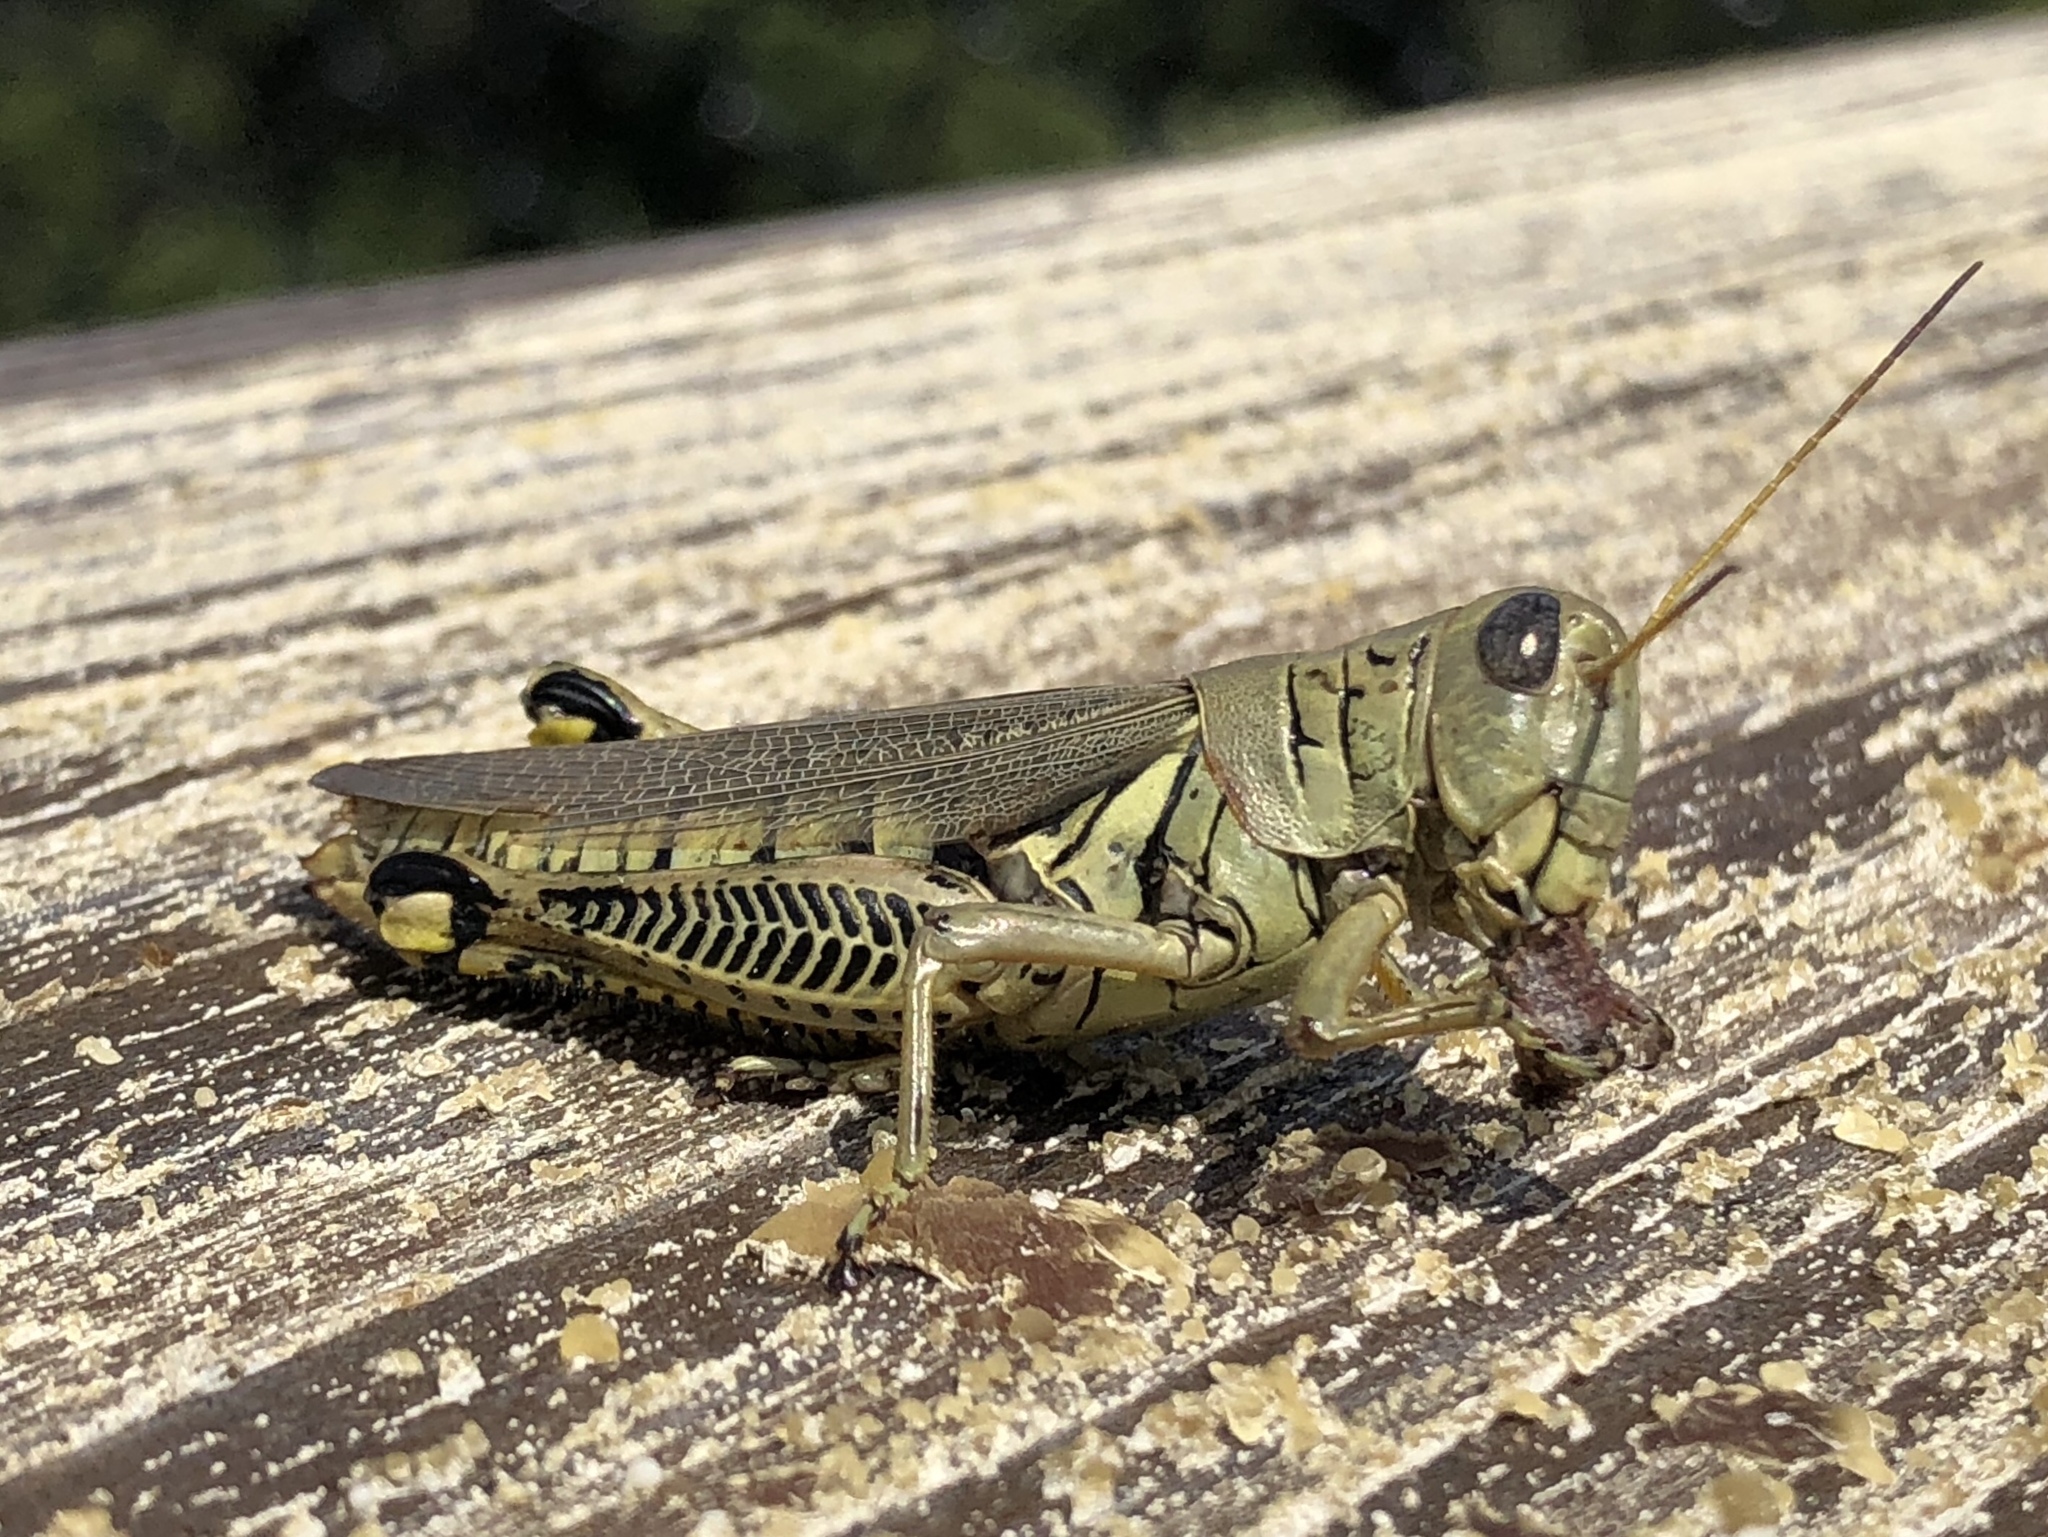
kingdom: Animalia
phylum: Arthropoda
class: Insecta
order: Orthoptera
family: Acrididae
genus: Melanoplus
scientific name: Melanoplus differentialis
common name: Differential grasshopper
